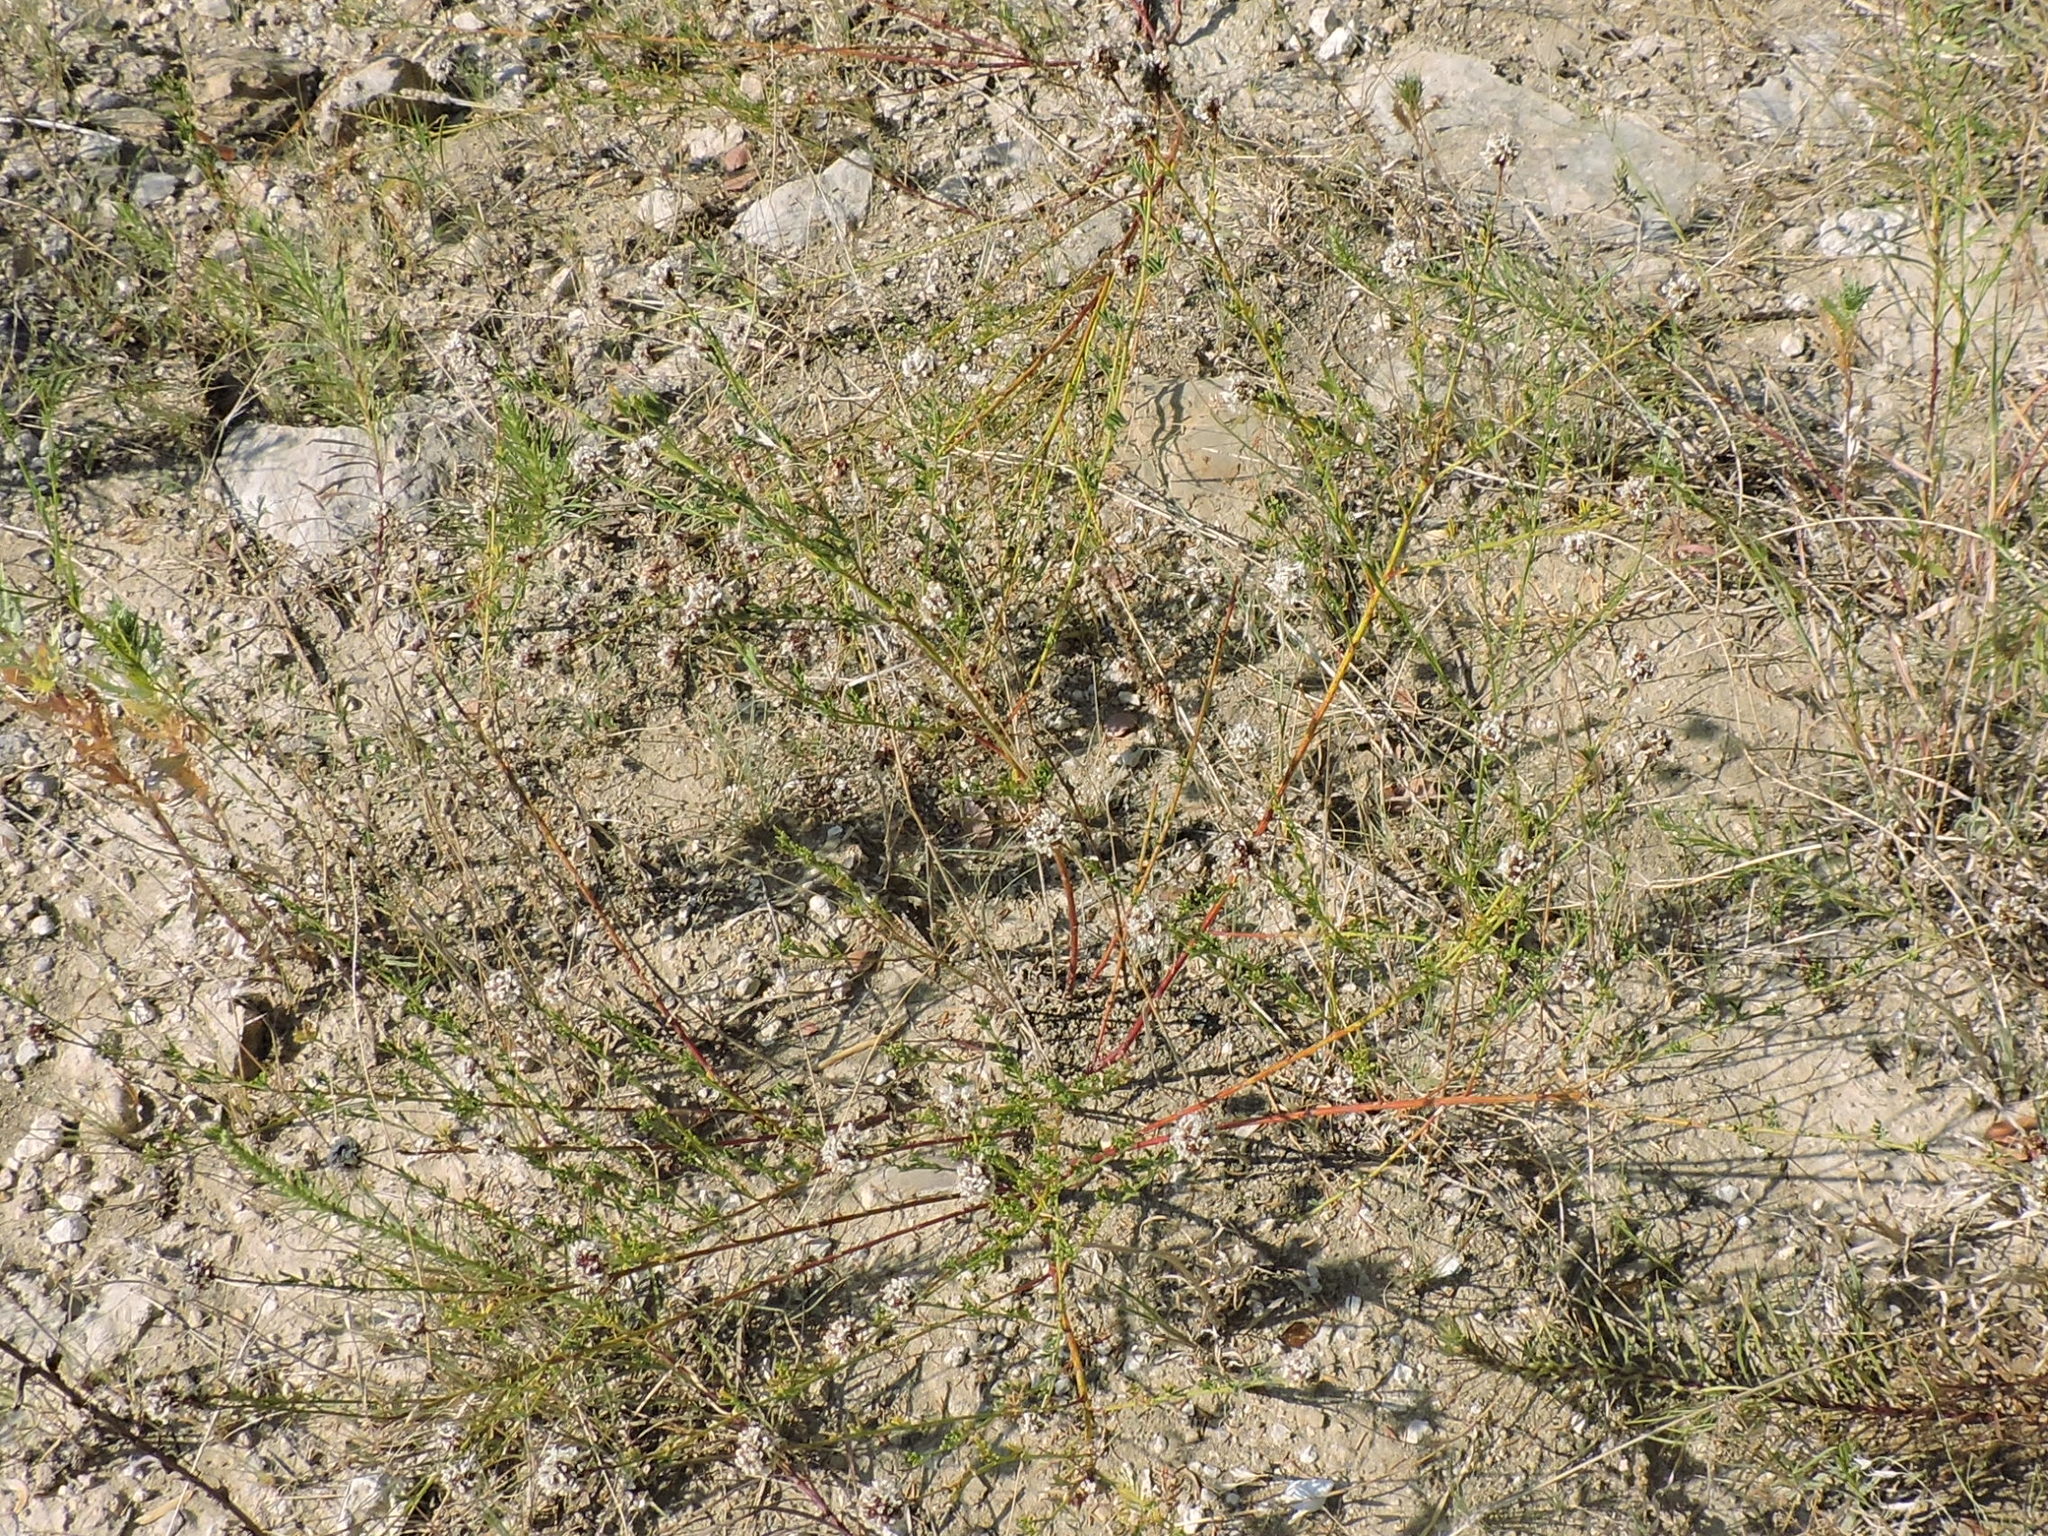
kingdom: Plantae
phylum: Tracheophyta
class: Magnoliopsida
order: Fabales
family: Fabaceae
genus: Dalea
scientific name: Dalea multiflora
